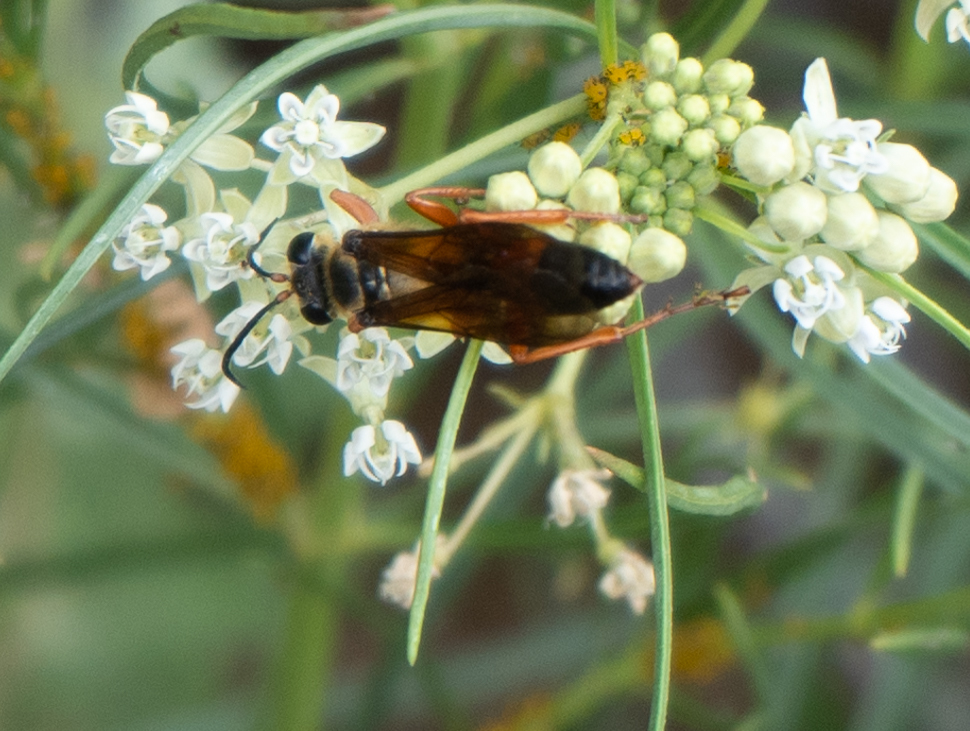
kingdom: Animalia
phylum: Arthropoda
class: Insecta
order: Hymenoptera
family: Sphecidae
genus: Sphex
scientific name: Sphex ichneumoneus
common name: Great golden digger wasp
